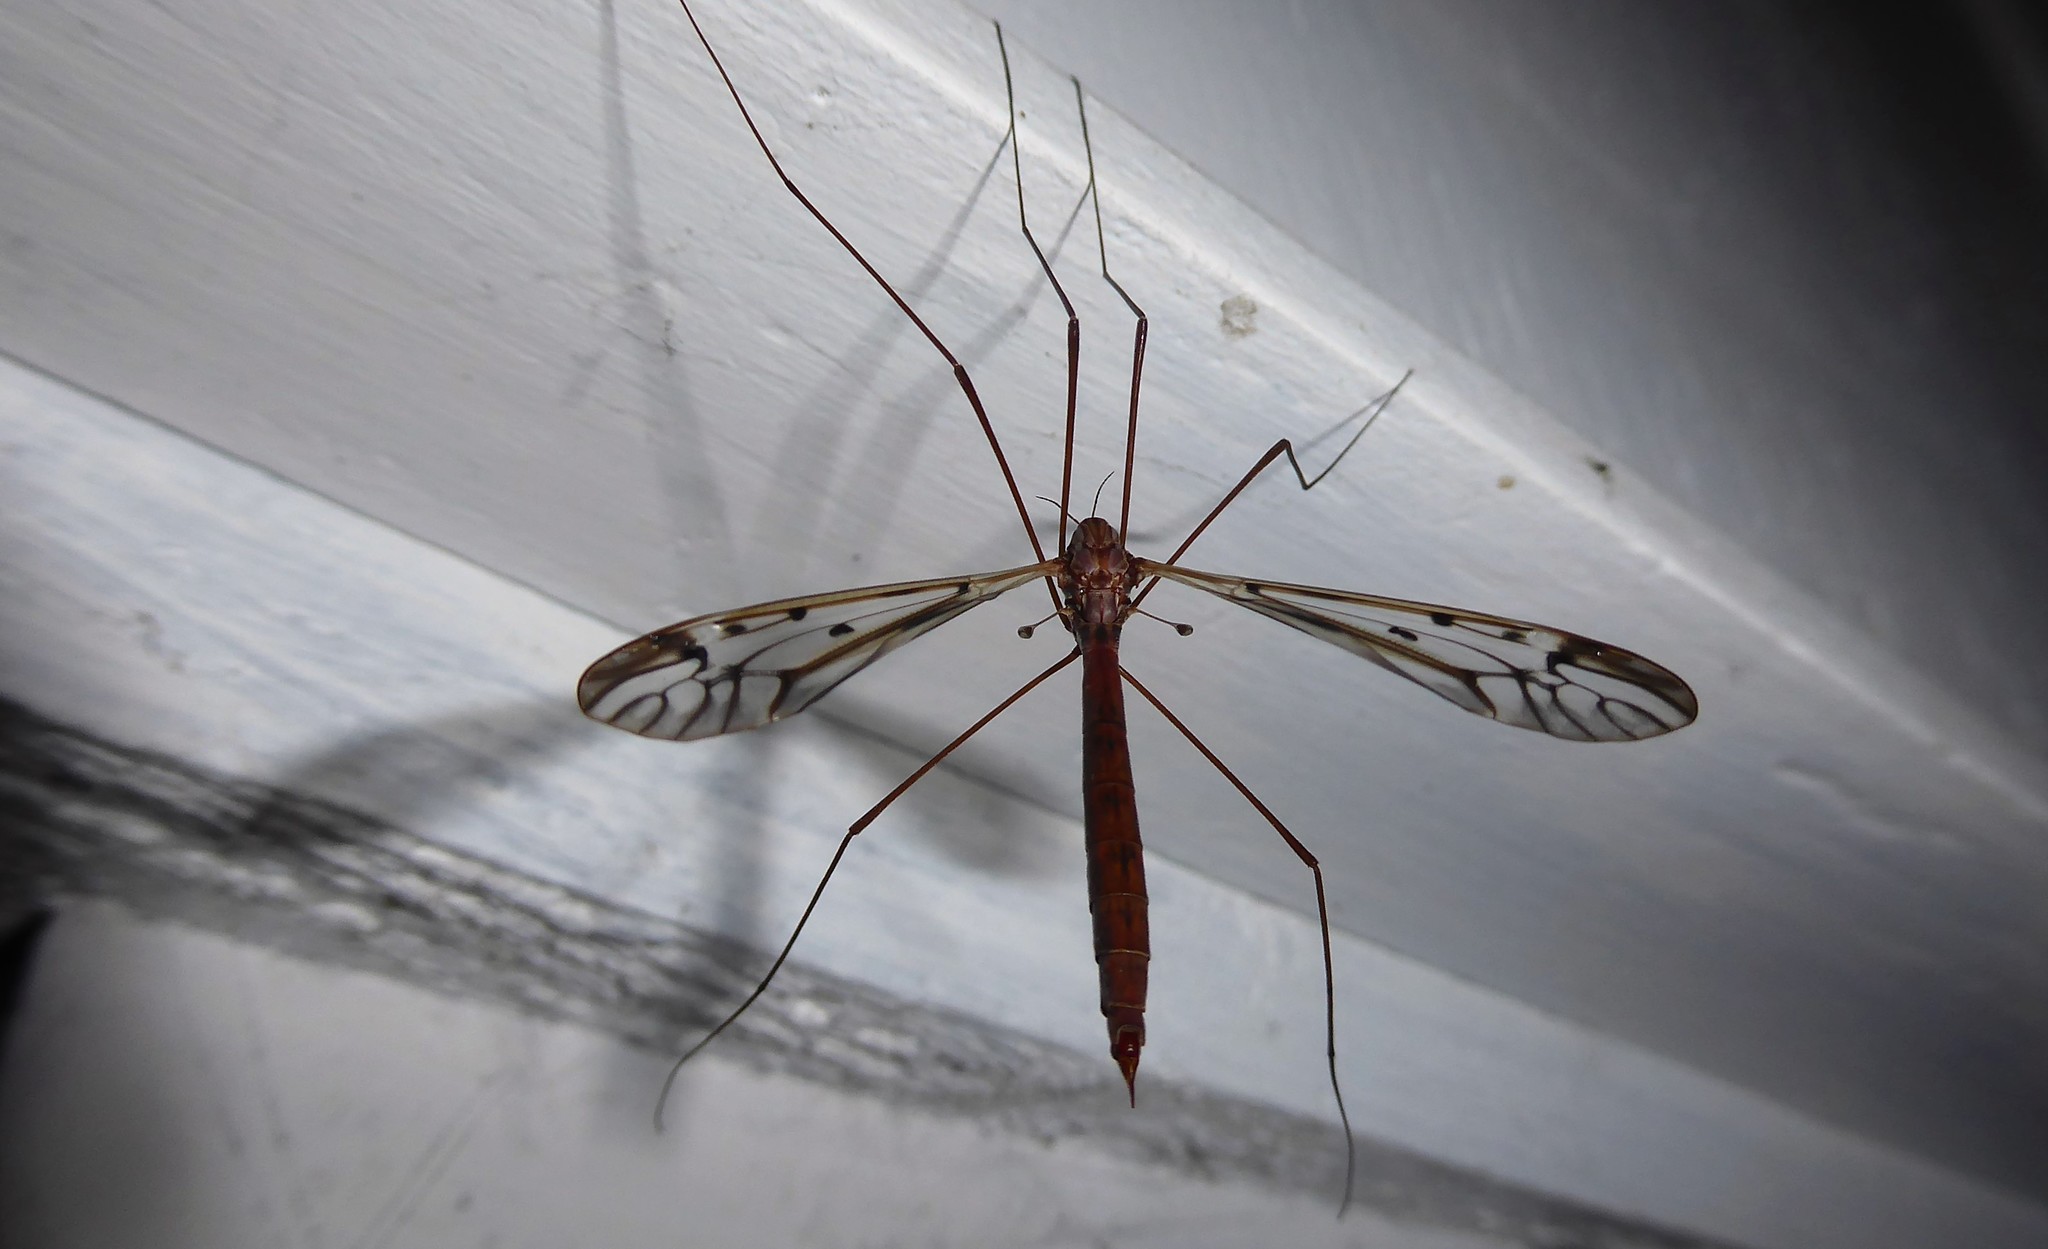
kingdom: Animalia
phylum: Arthropoda
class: Insecta
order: Diptera
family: Tipulidae
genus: Zelandotipula
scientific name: Zelandotipula novarae
